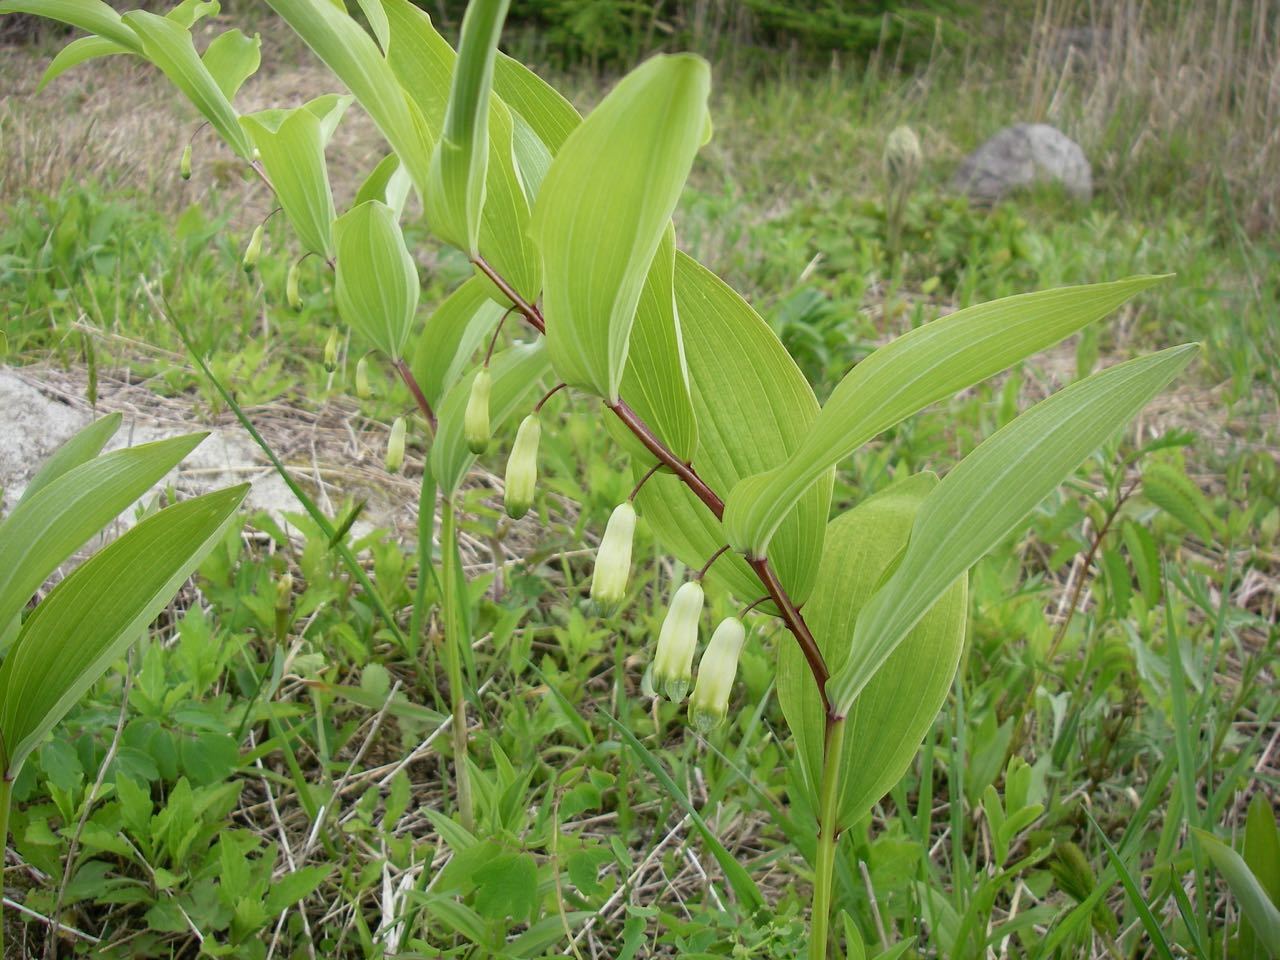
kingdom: Plantae
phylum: Tracheophyta
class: Liliopsida
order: Asparagales
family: Asparagaceae
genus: Polygonatum
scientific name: Polygonatum odoratum
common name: Angular solomon's-seal
